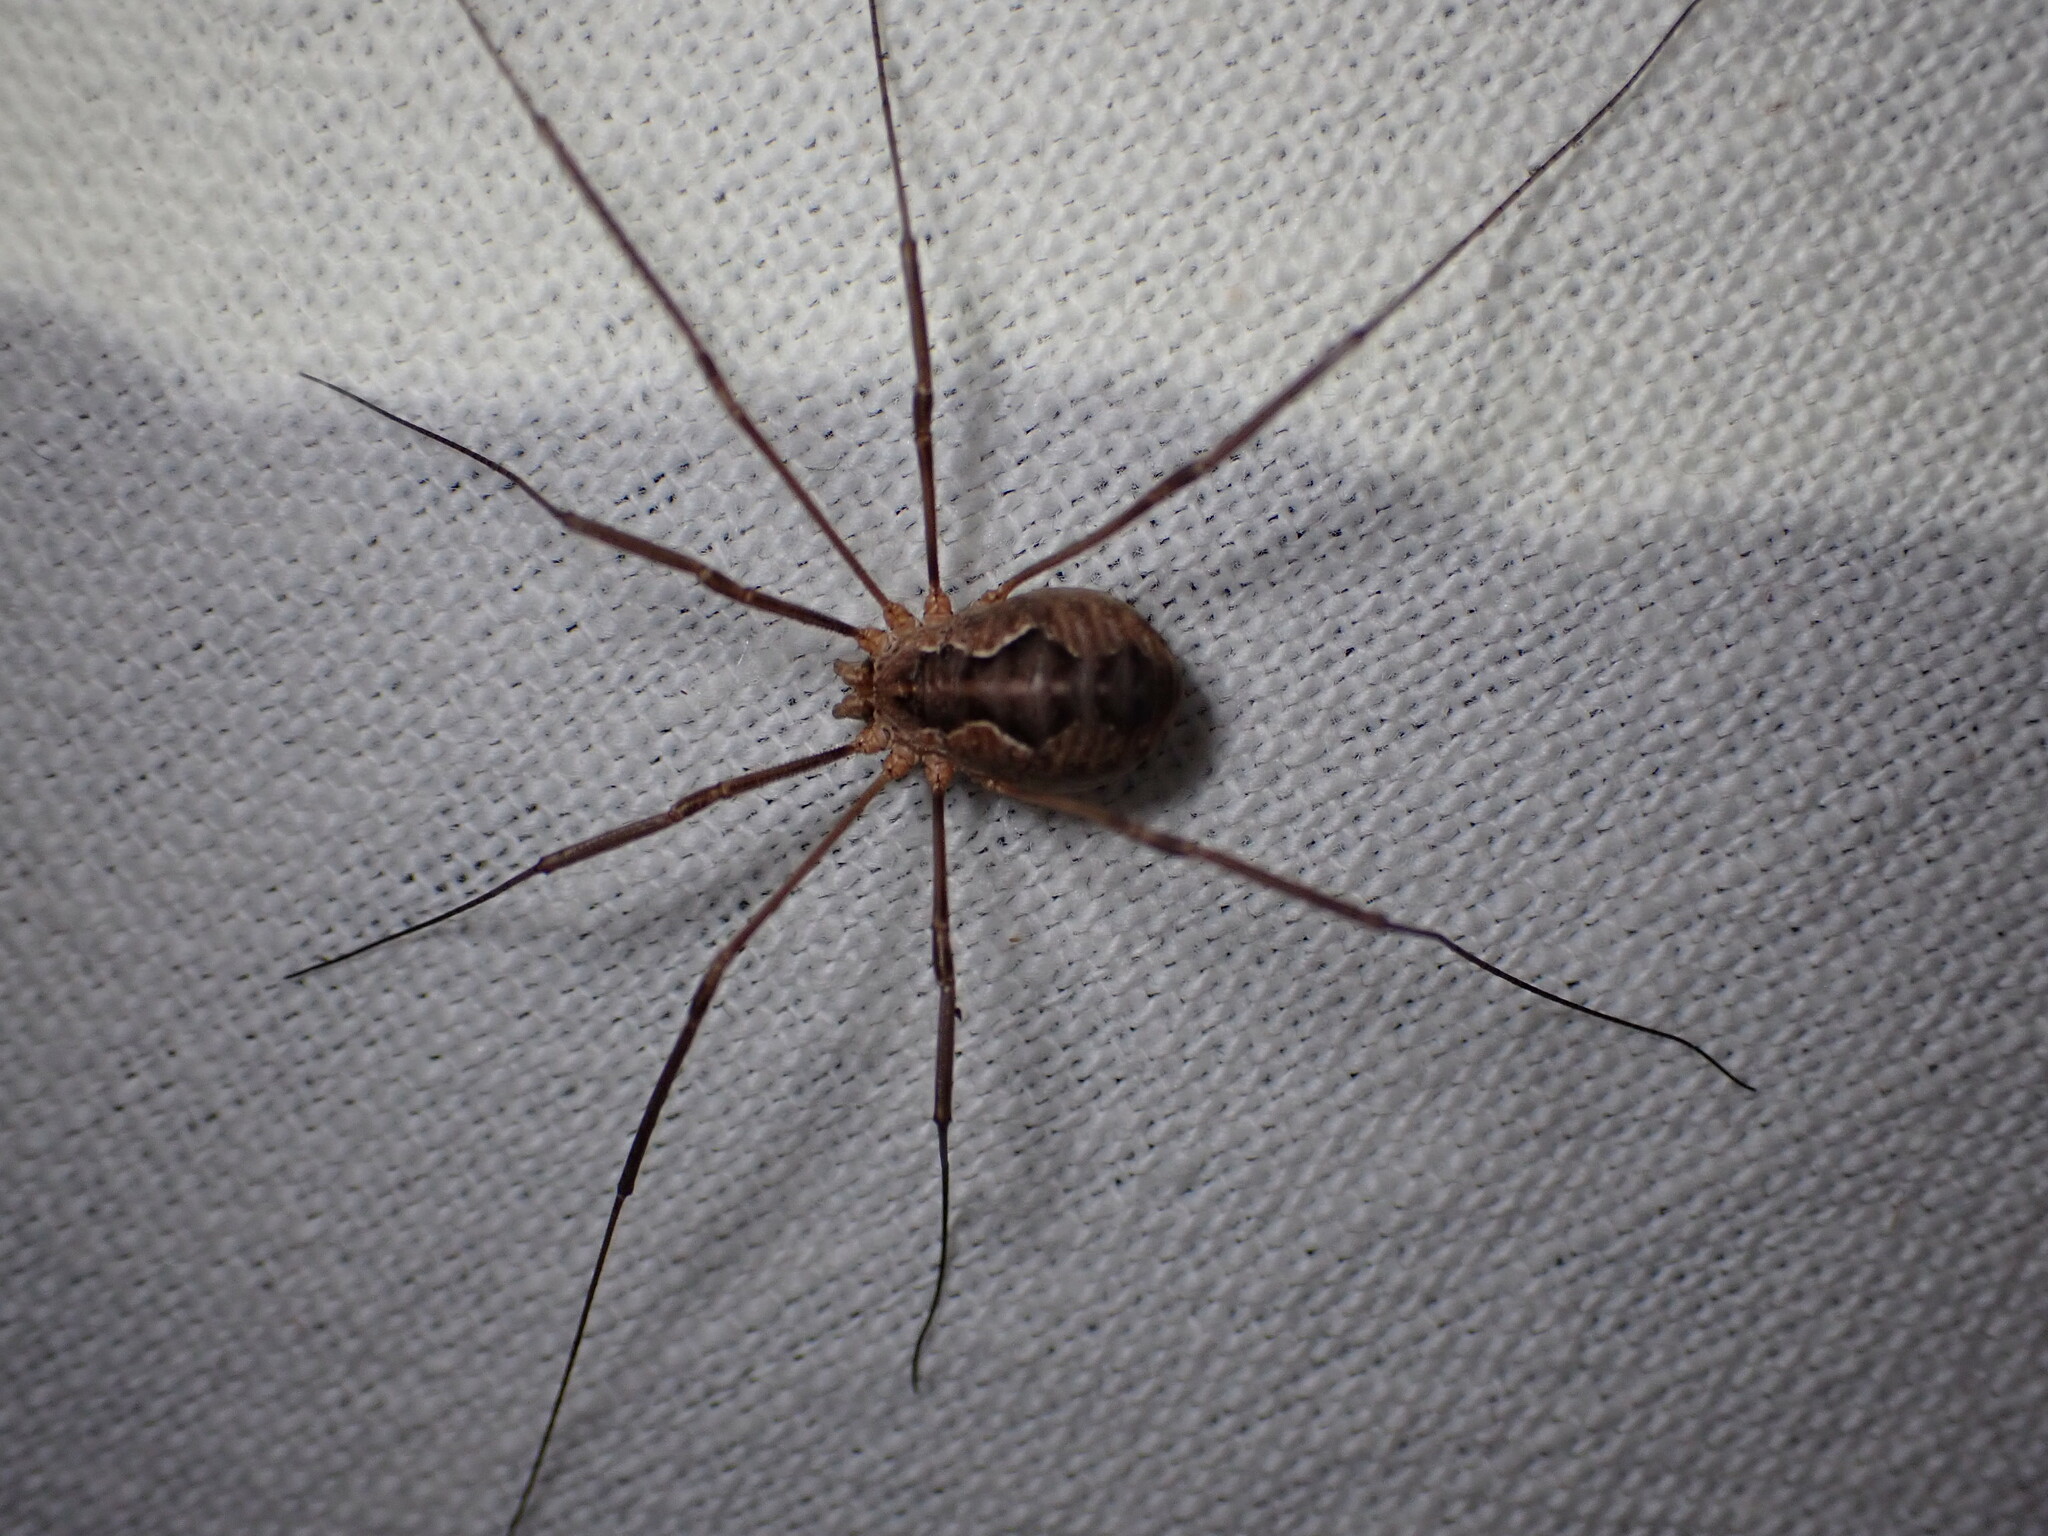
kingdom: Animalia
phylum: Arthropoda
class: Arachnida
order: Opiliones
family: Phalangiidae
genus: Phalangium
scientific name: Phalangium opilio
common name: Daddy longleg
